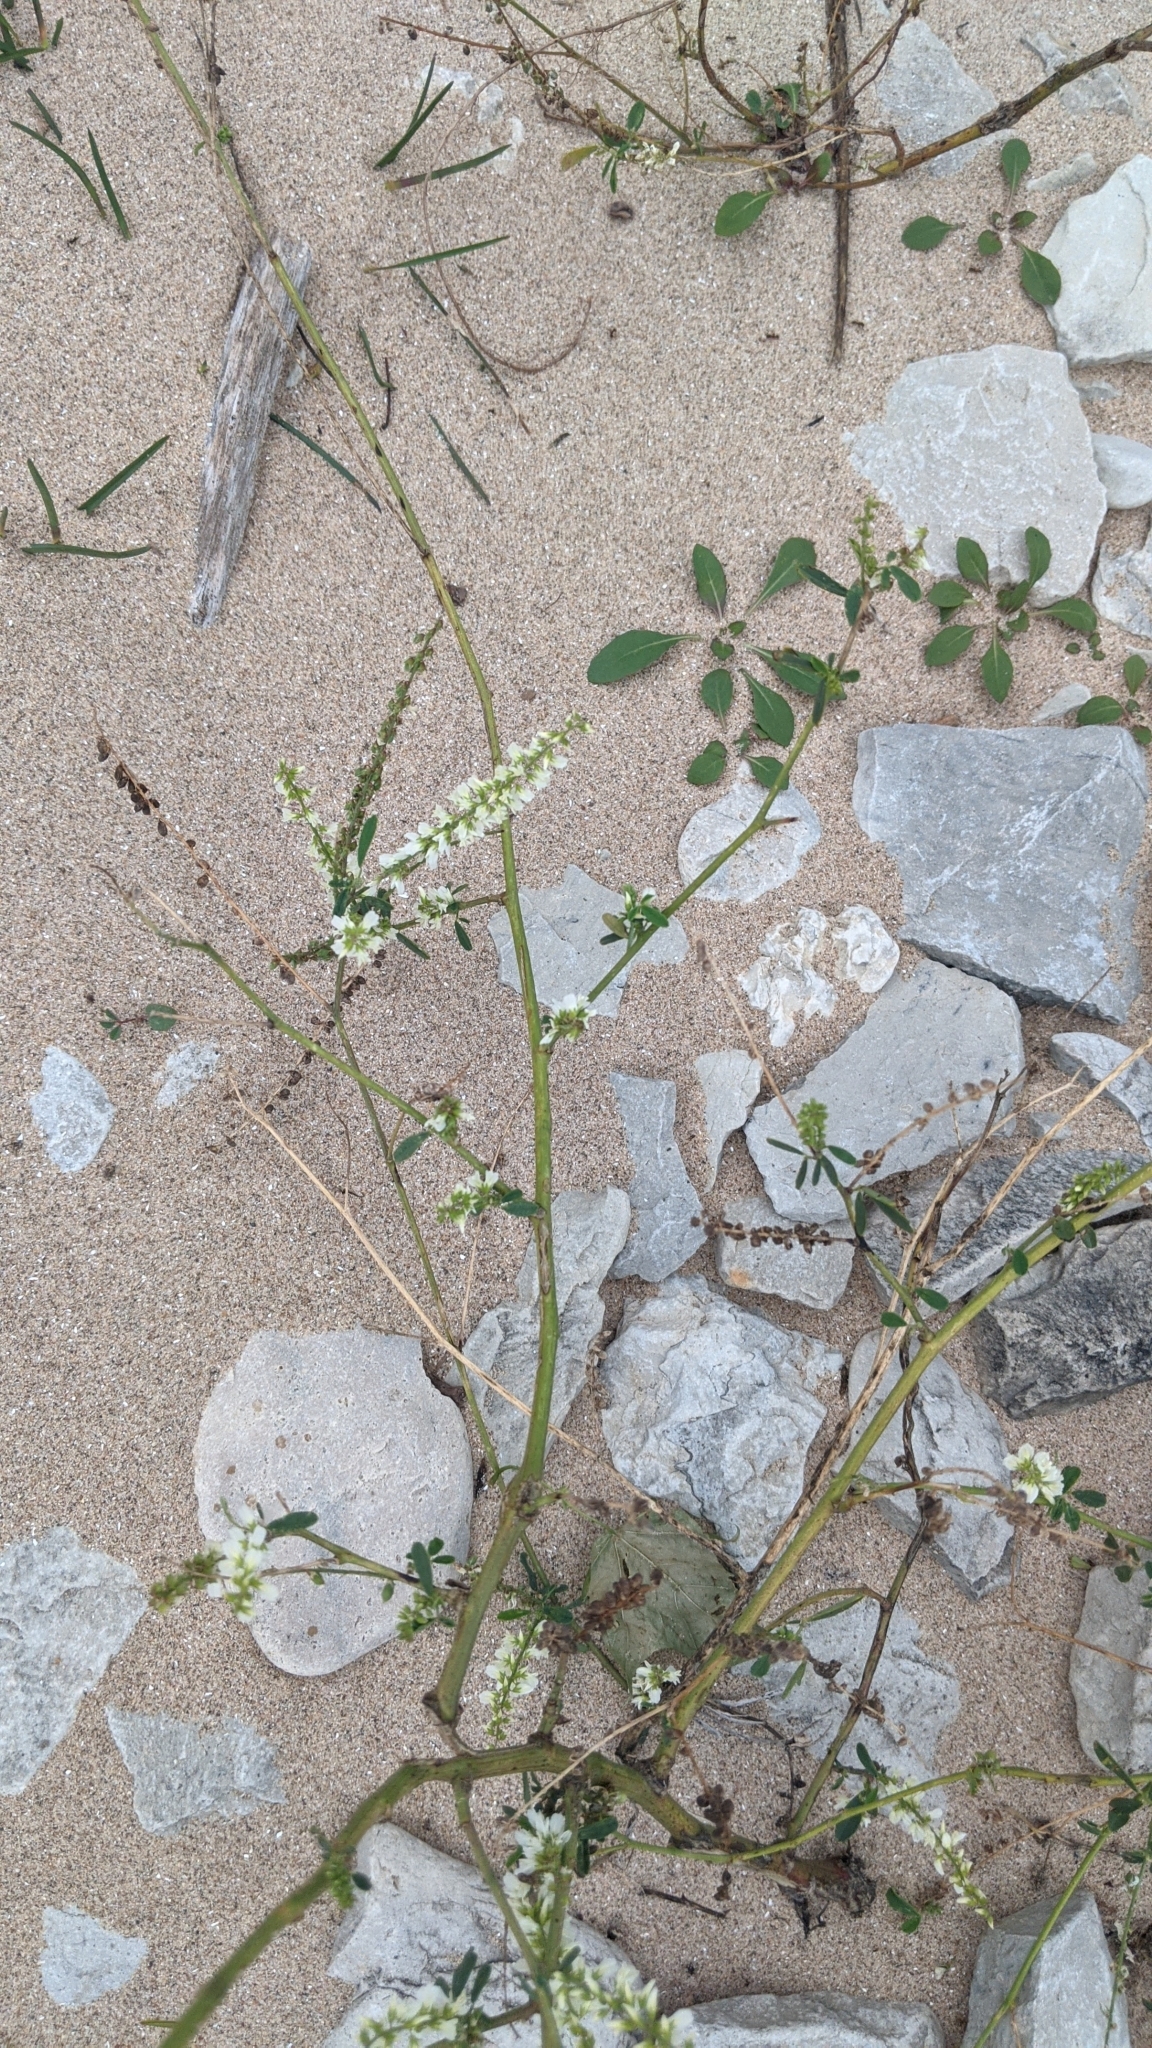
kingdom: Plantae
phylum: Tracheophyta
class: Magnoliopsida
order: Fabales
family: Fabaceae
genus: Melilotus
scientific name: Melilotus albus
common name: White melilot
